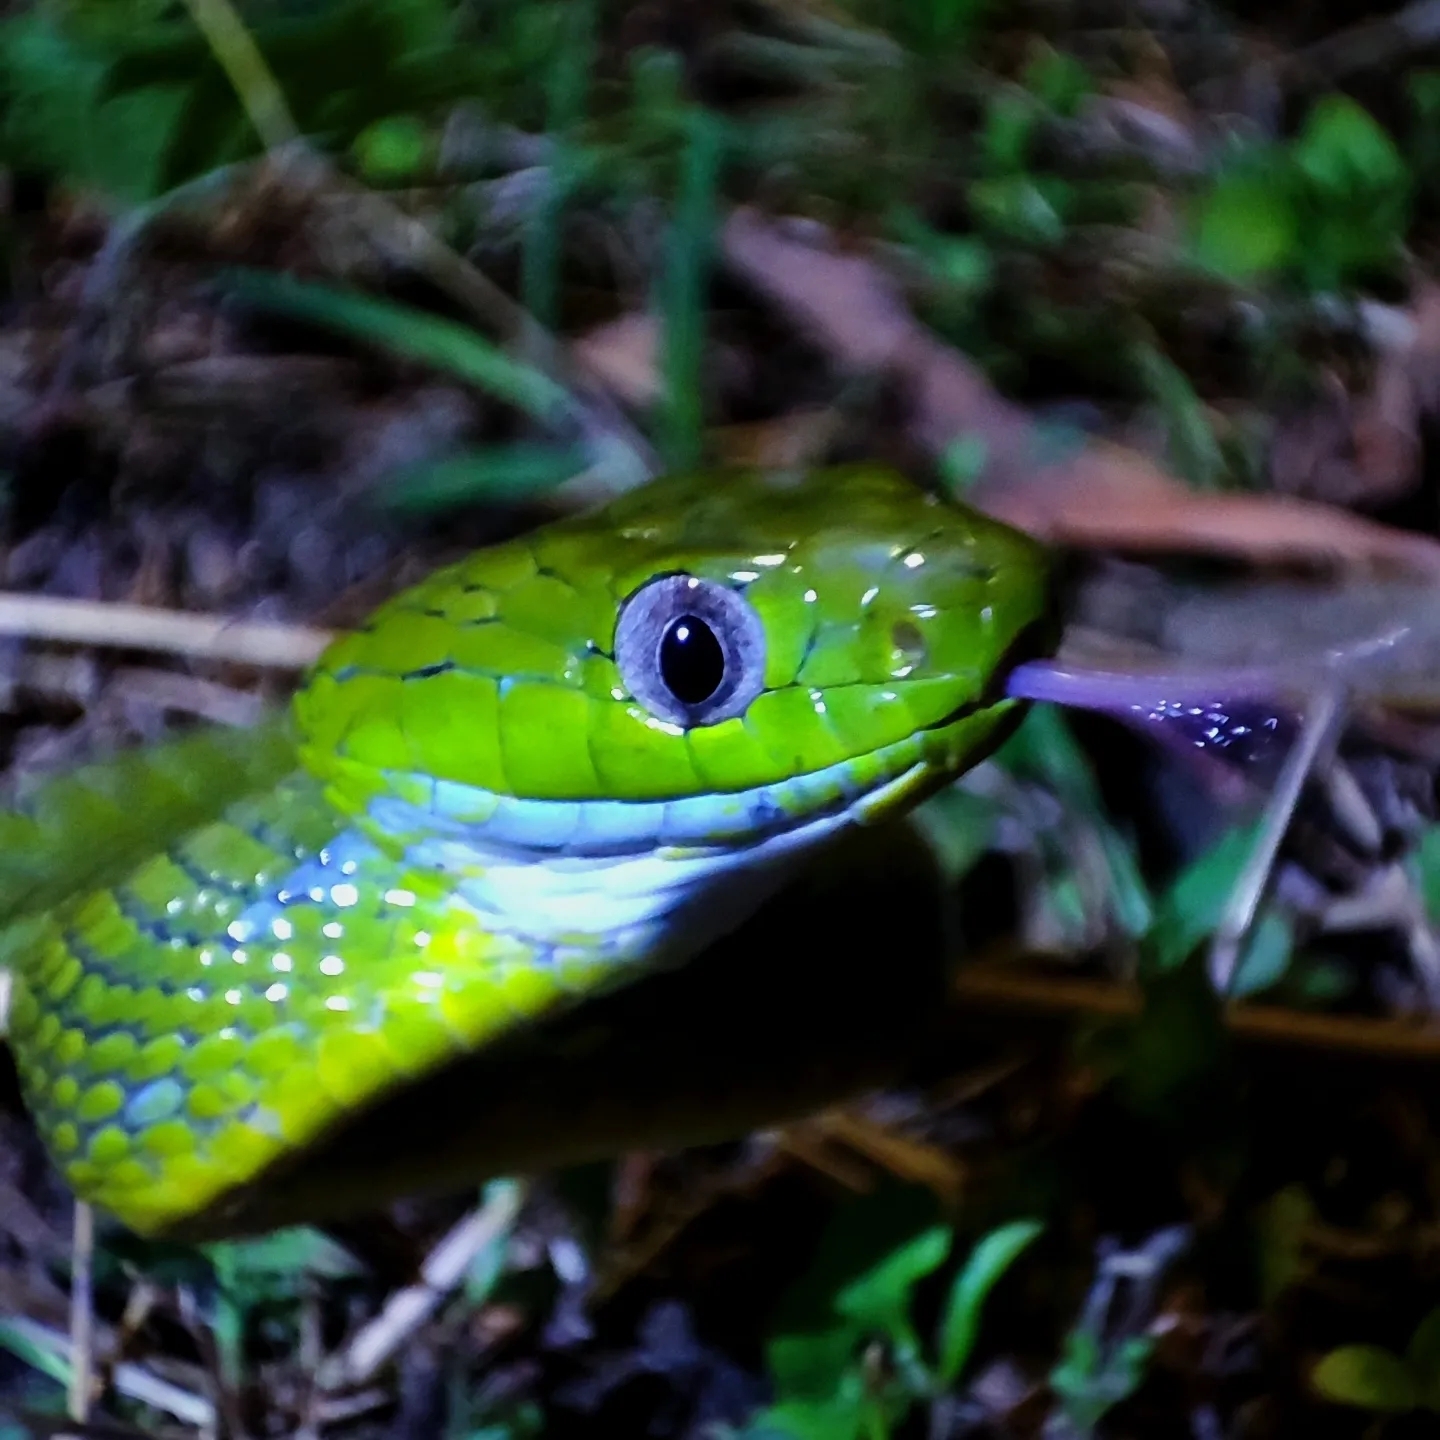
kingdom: Animalia
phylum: Chordata
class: Squamata
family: Colubridae
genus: Boiga
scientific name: Boiga cyanea
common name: Green cat snake
